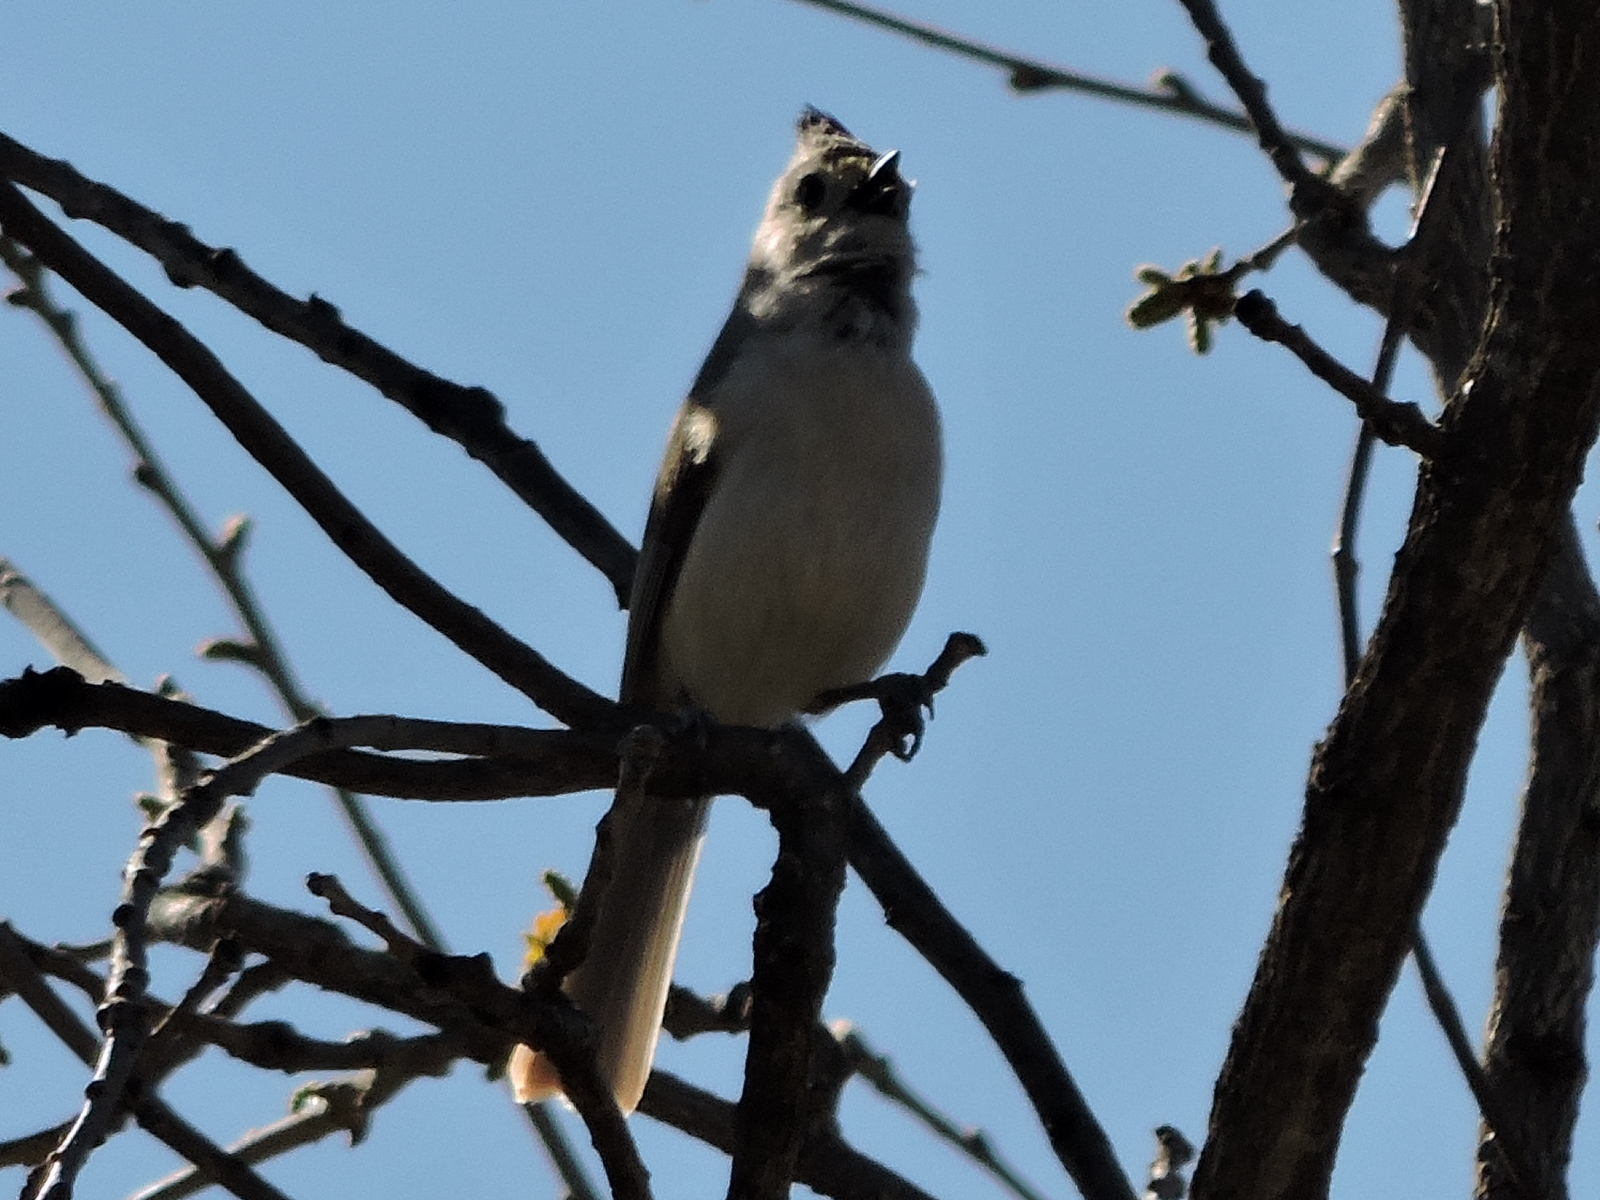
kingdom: Animalia
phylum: Chordata
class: Aves
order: Passeriformes
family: Paridae
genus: Baeolophus
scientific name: Baeolophus atricristatus
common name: Black-crested titmouse
